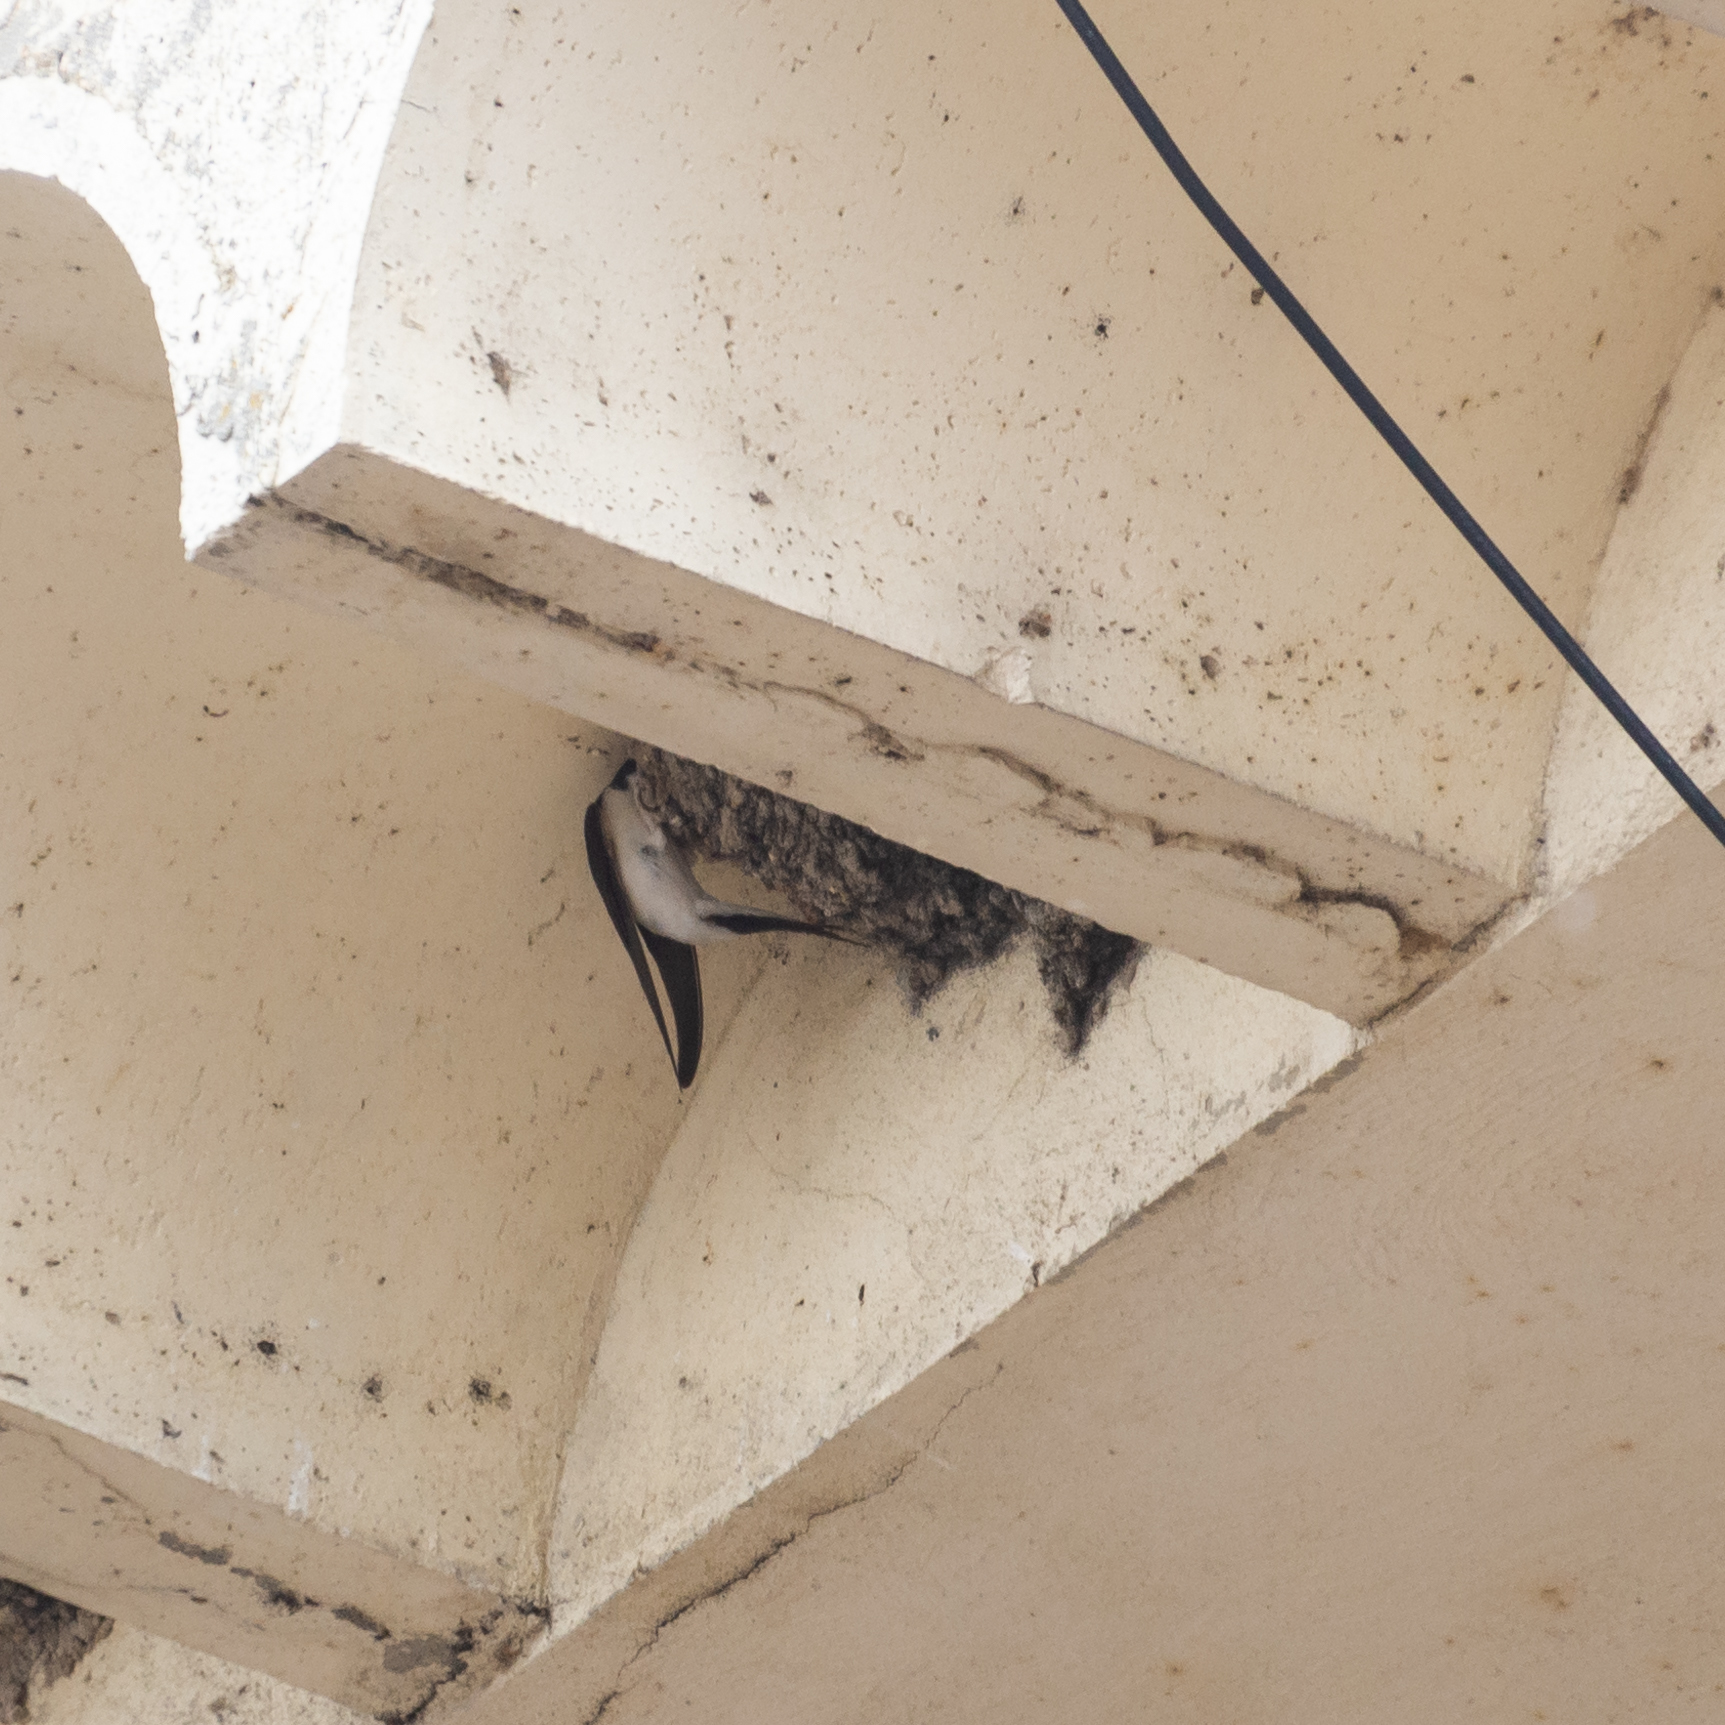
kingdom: Animalia
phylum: Chordata
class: Aves
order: Passeriformes
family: Hirundinidae
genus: Delichon
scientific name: Delichon urbicum
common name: Common house martin
